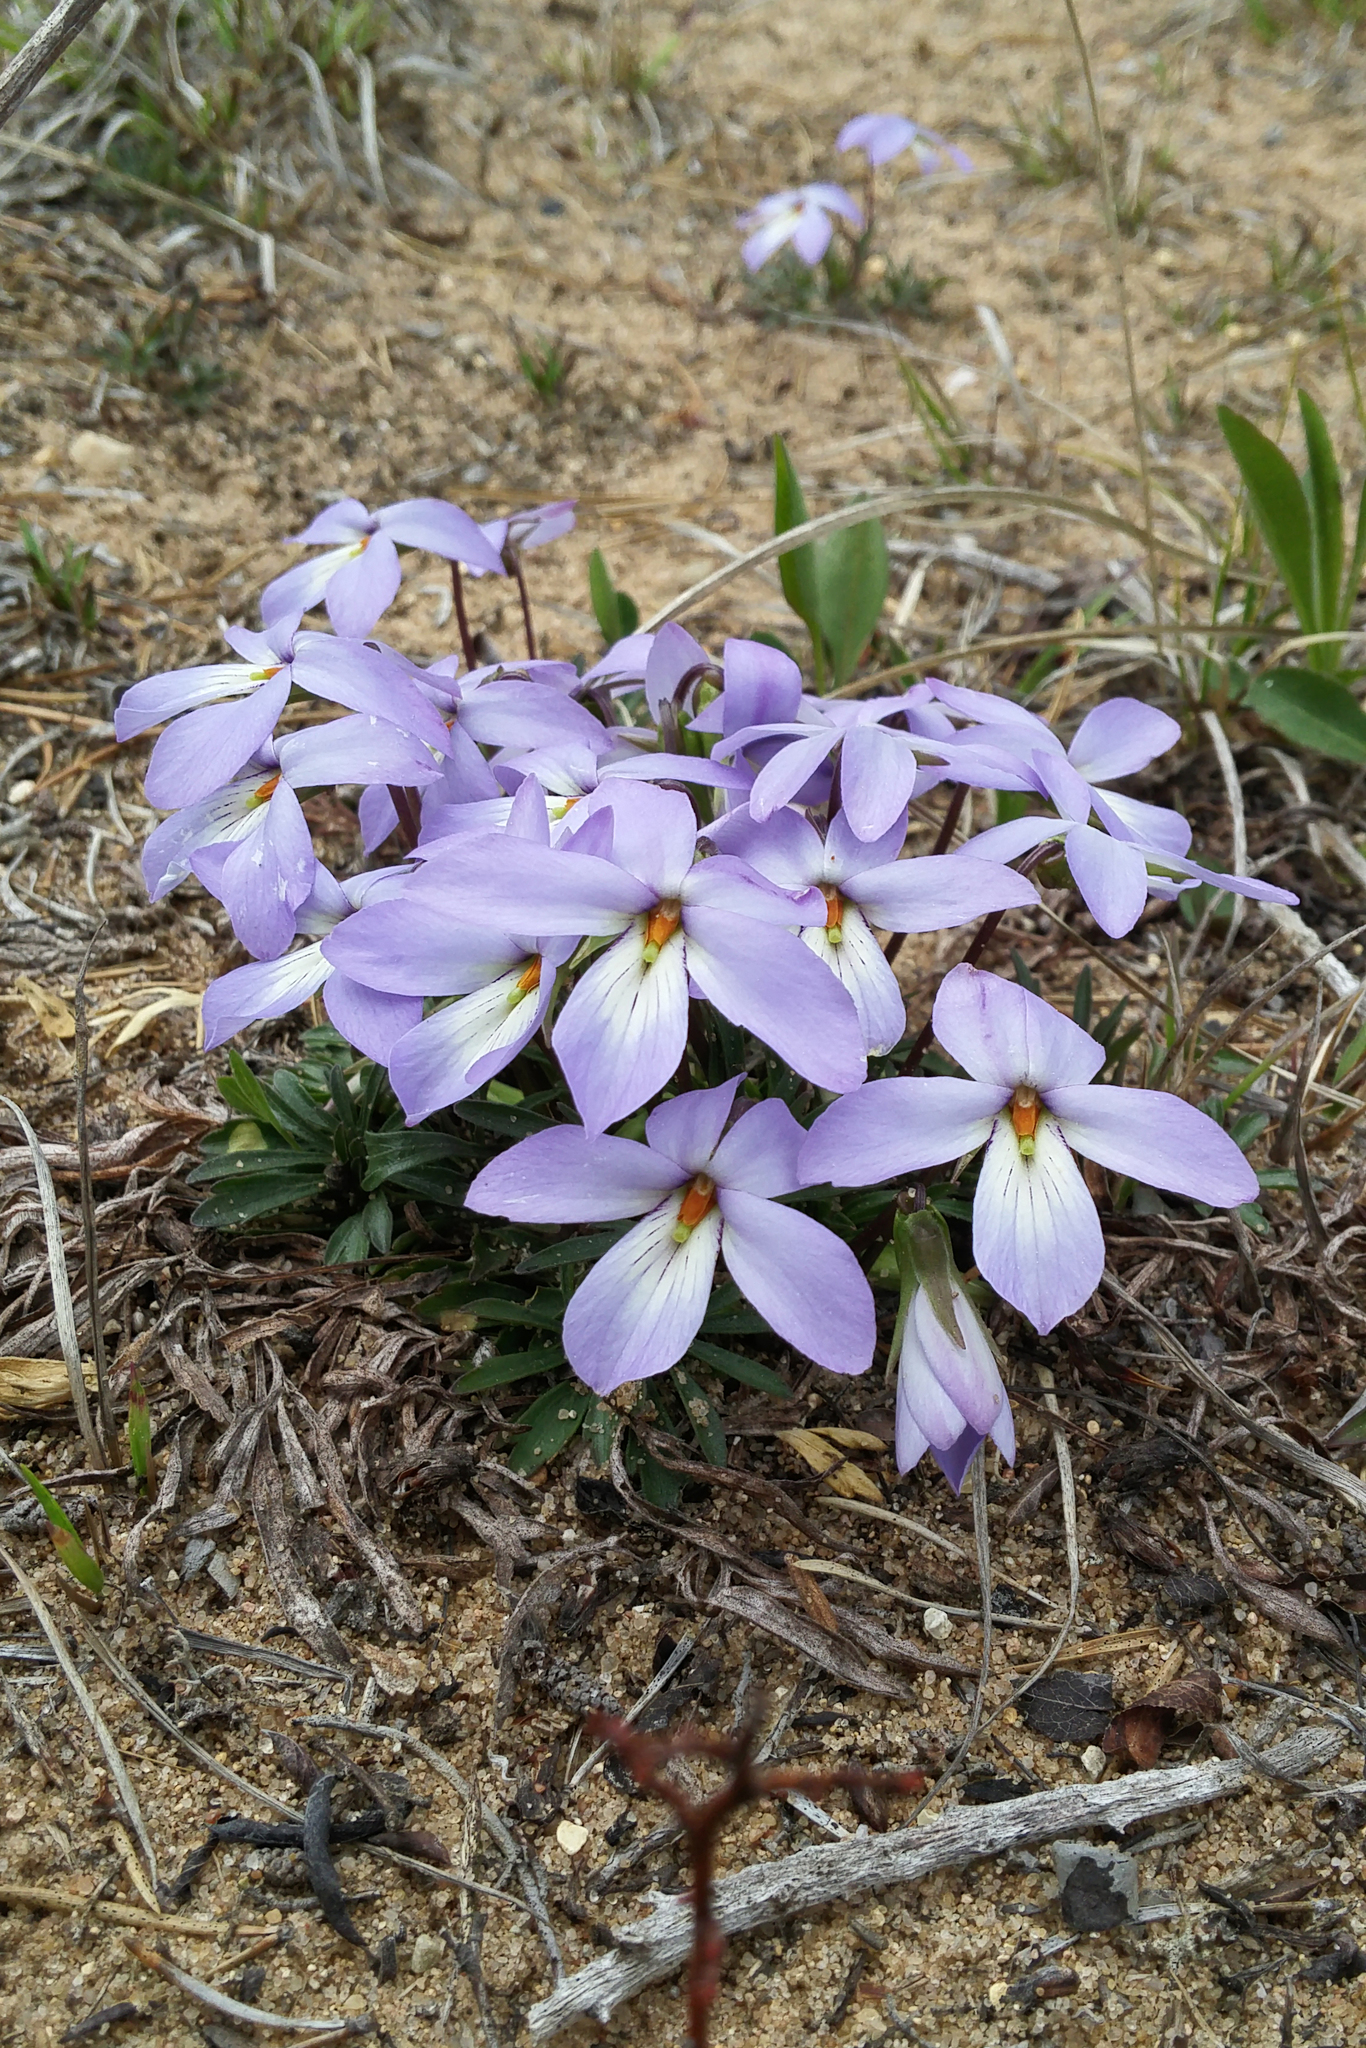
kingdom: Plantae
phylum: Tracheophyta
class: Magnoliopsida
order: Malpighiales
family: Violaceae
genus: Viola
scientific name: Viola pedata
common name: Pansy violet
